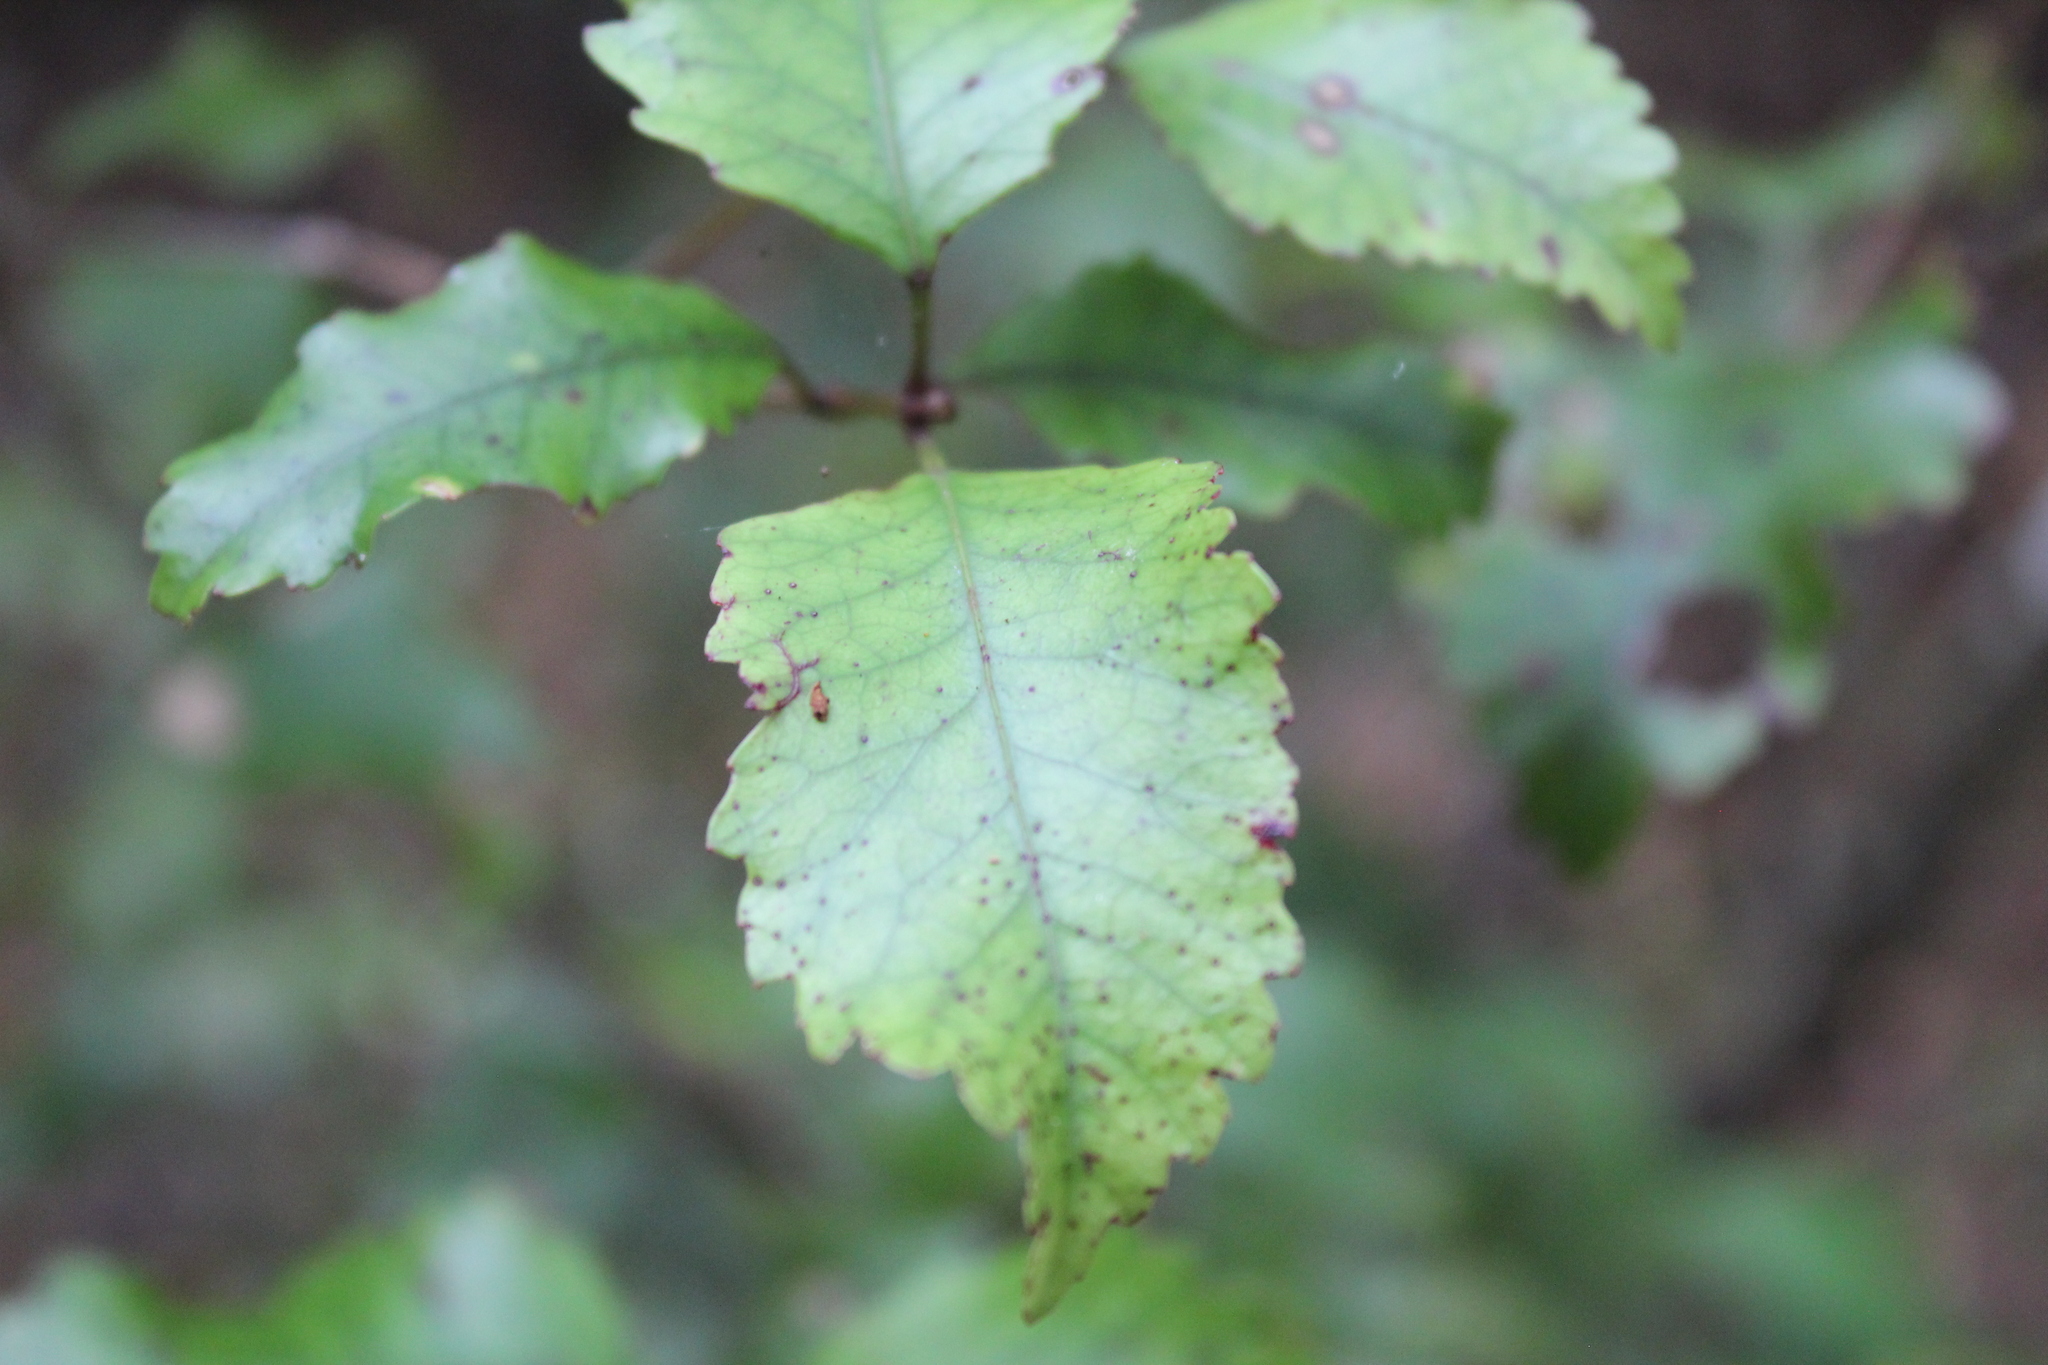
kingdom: Plantae
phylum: Tracheophyta
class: Magnoliopsida
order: Oxalidales
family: Cunoniaceae
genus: Pterophylla
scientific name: Pterophylla racemosa
